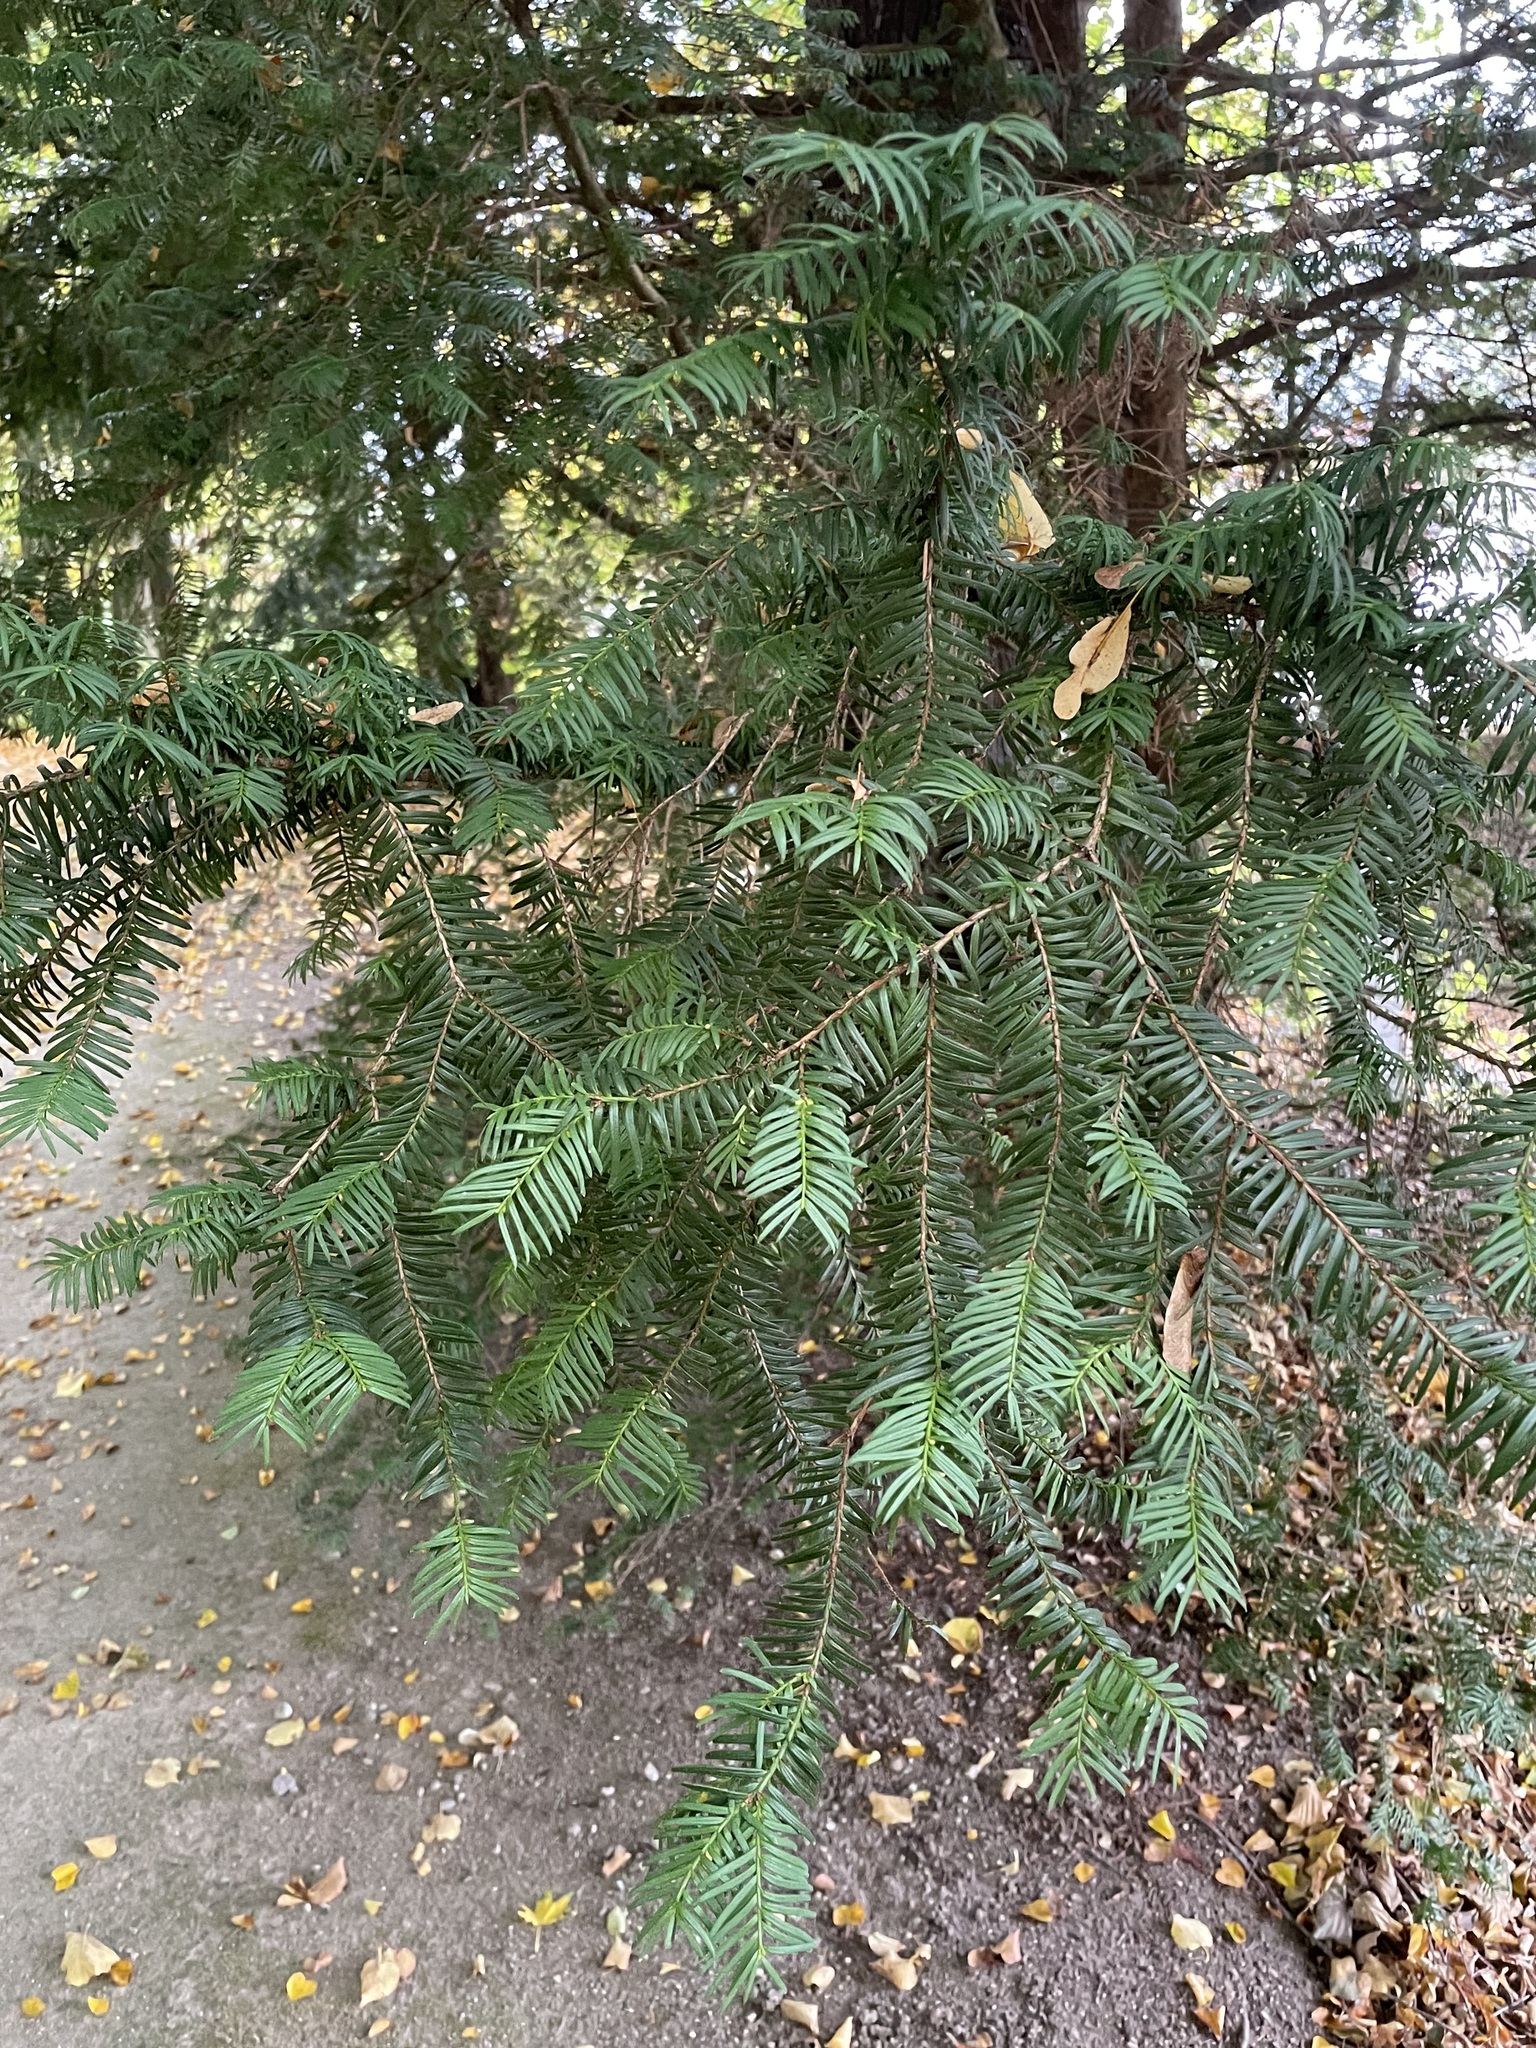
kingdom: Plantae
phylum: Tracheophyta
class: Pinopsida
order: Pinales
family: Taxaceae
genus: Taxus
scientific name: Taxus baccata
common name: Yew
